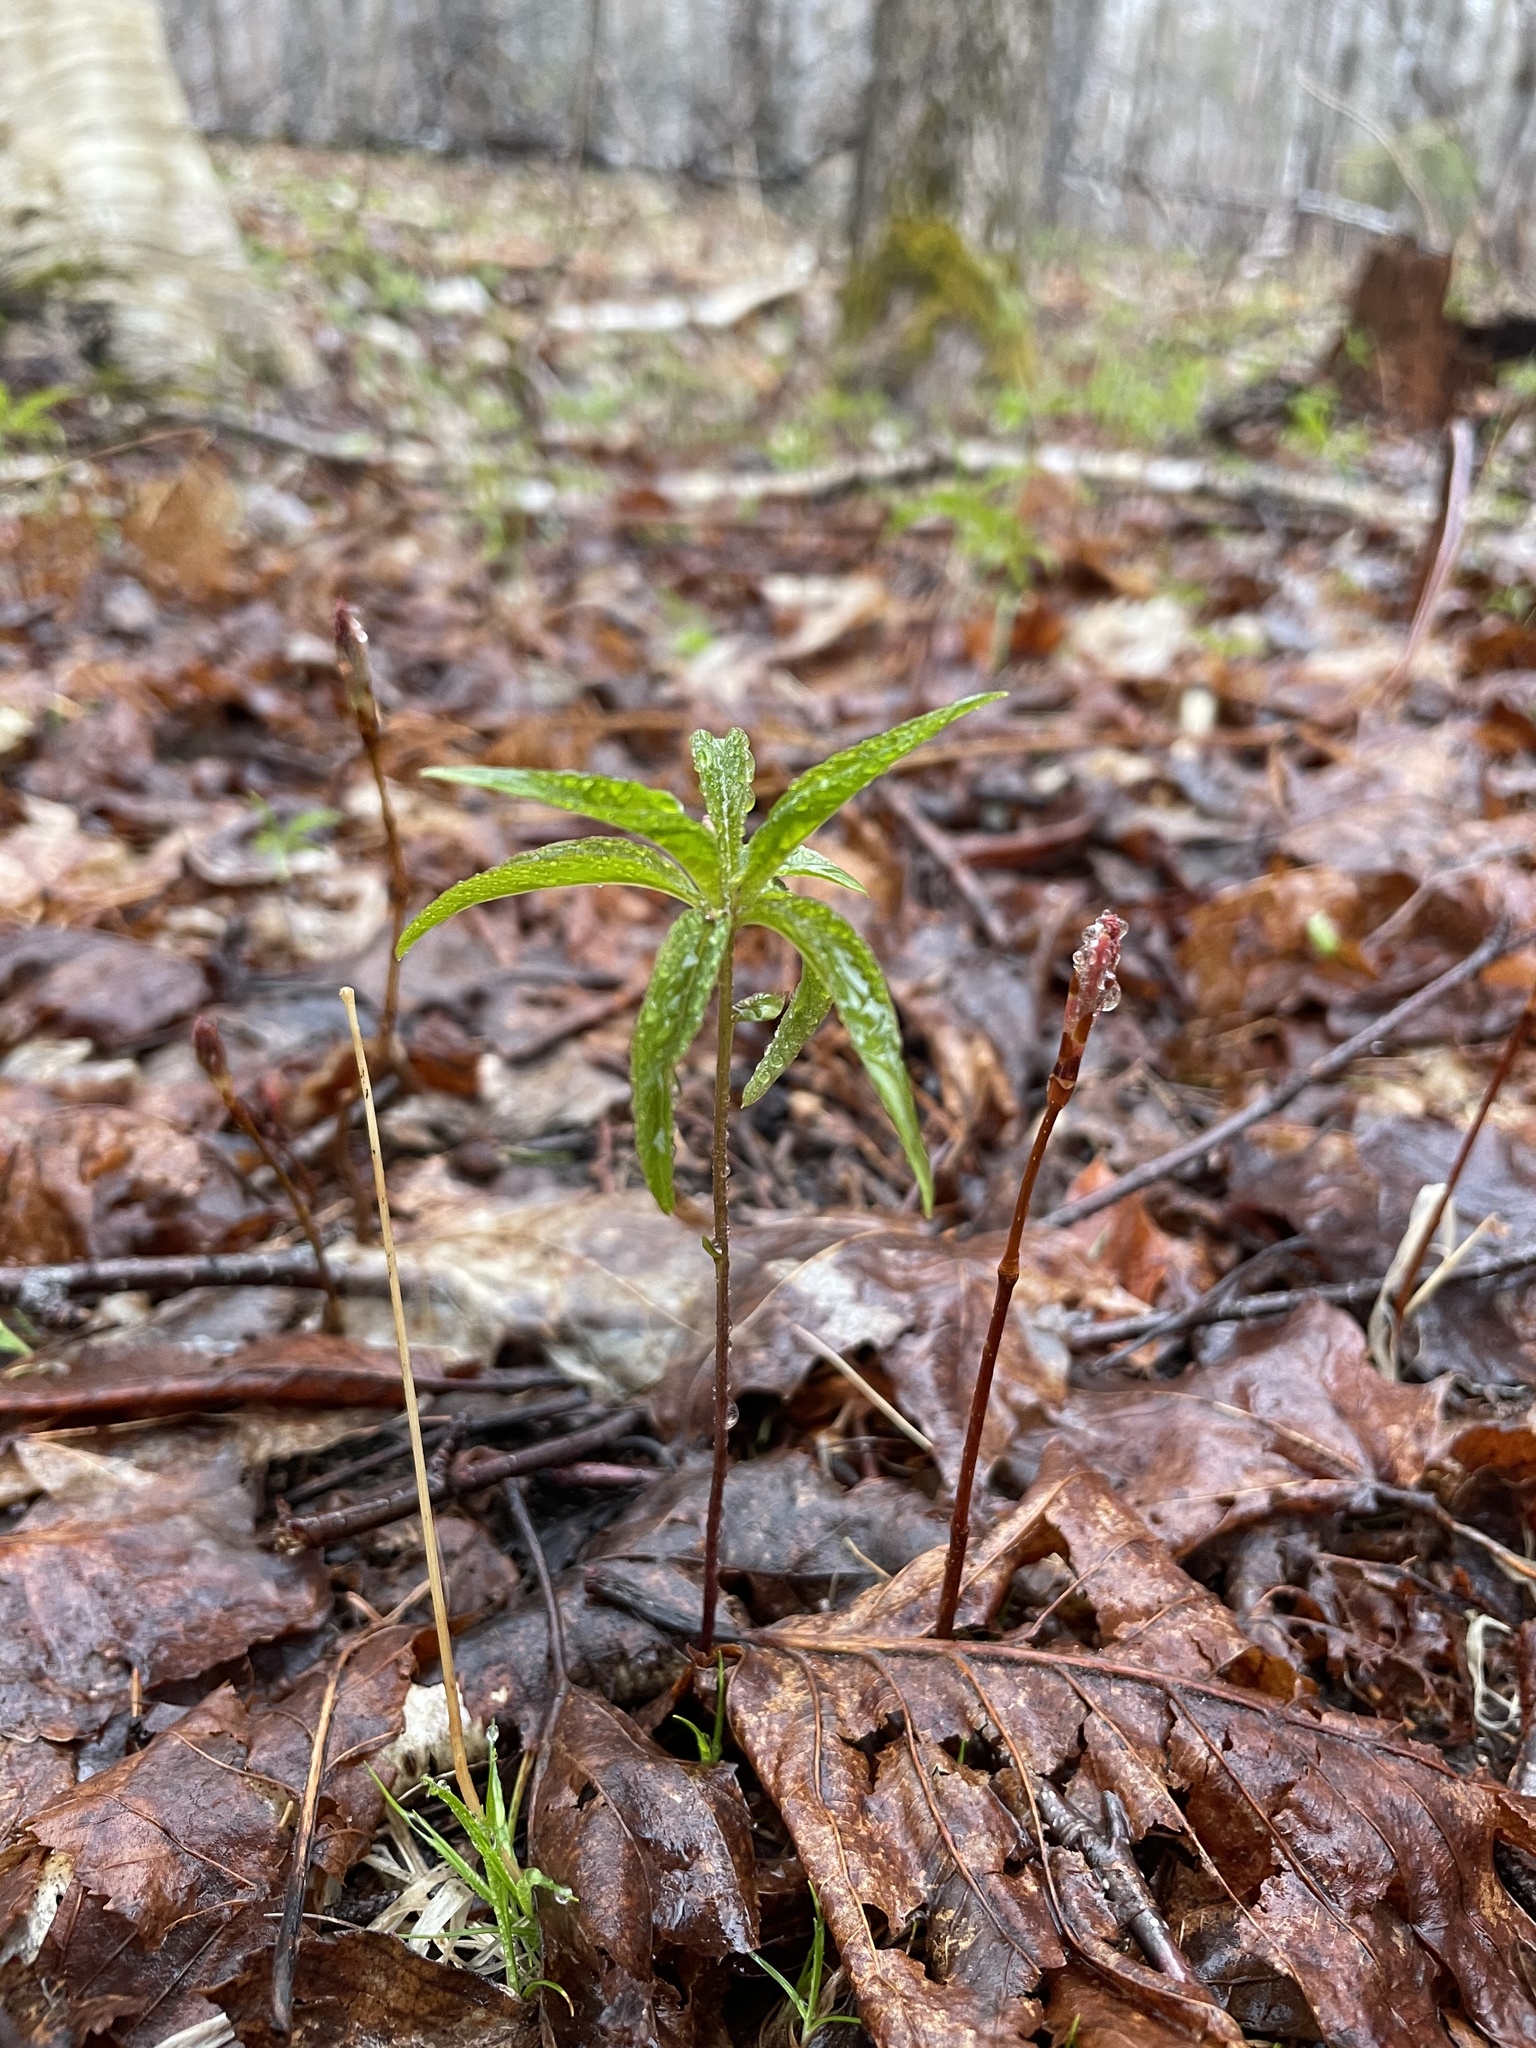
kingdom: Plantae
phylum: Tracheophyta
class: Magnoliopsida
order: Ericales
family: Primulaceae
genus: Lysimachia
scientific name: Lysimachia borealis
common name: American starflower
